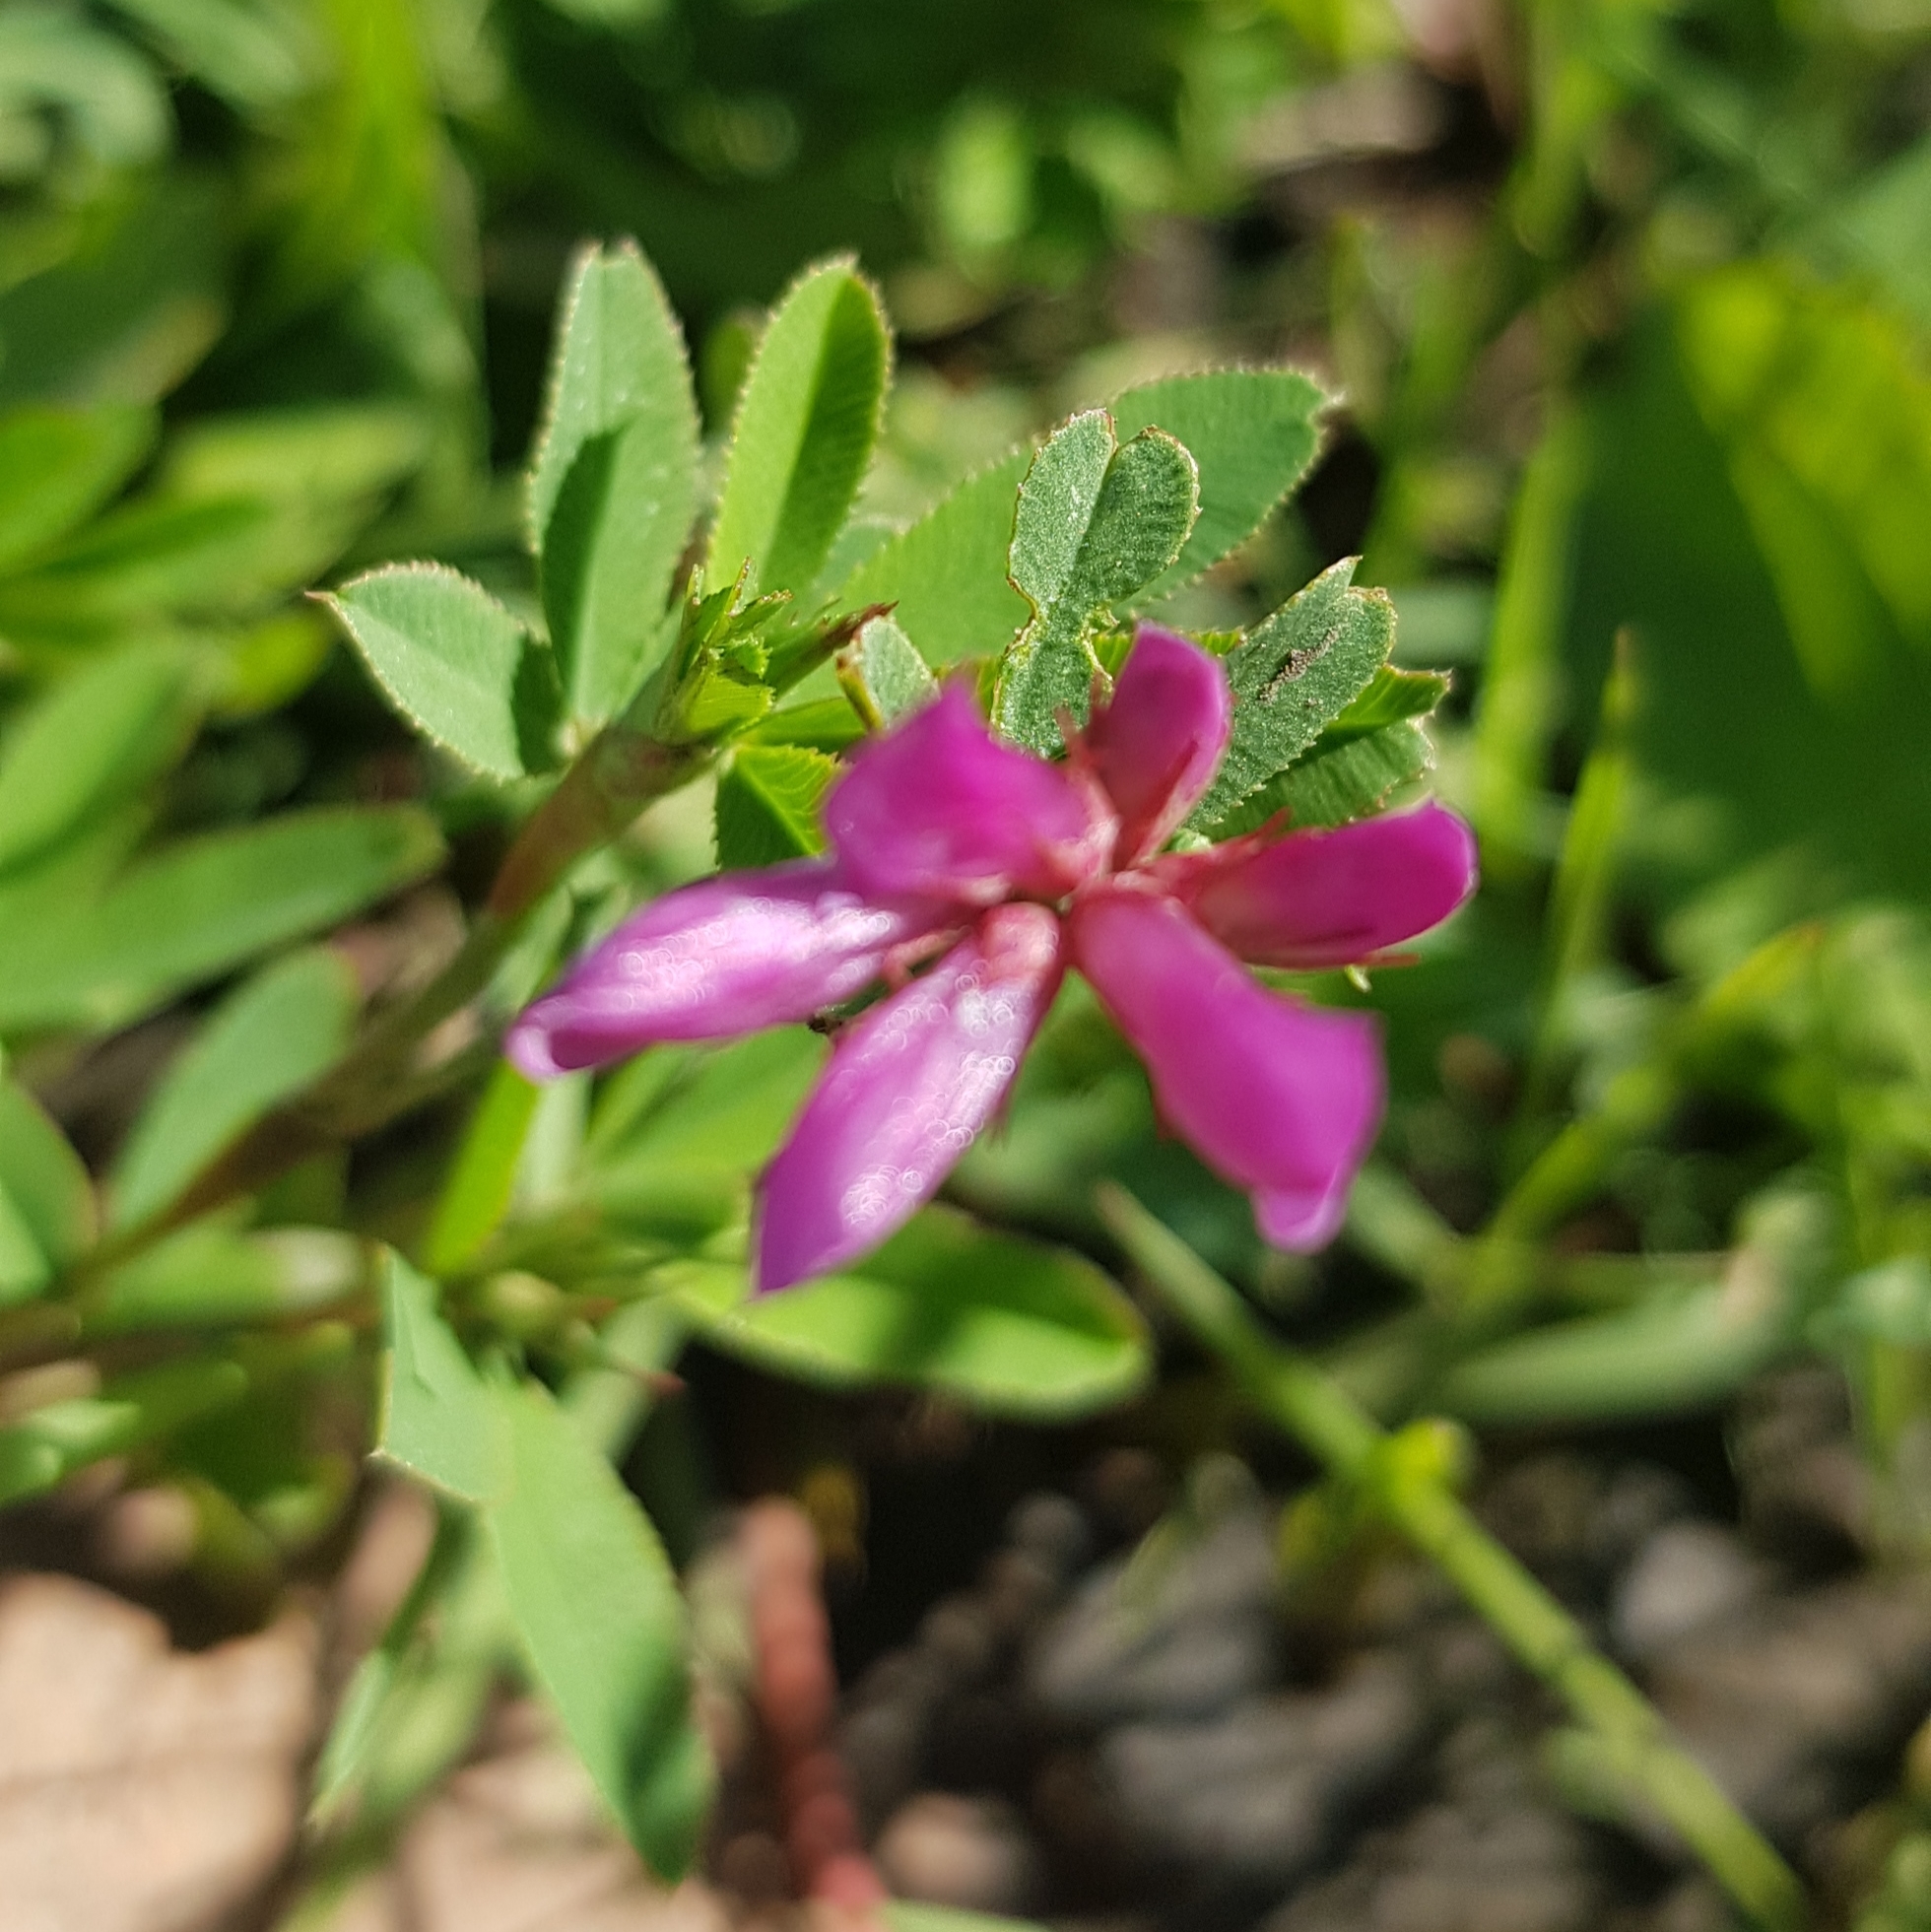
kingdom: Plantae
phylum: Tracheophyta
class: Magnoliopsida
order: Fabales
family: Fabaceae
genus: Trifolium
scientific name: Trifolium lupinaster
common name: Lupine clover
